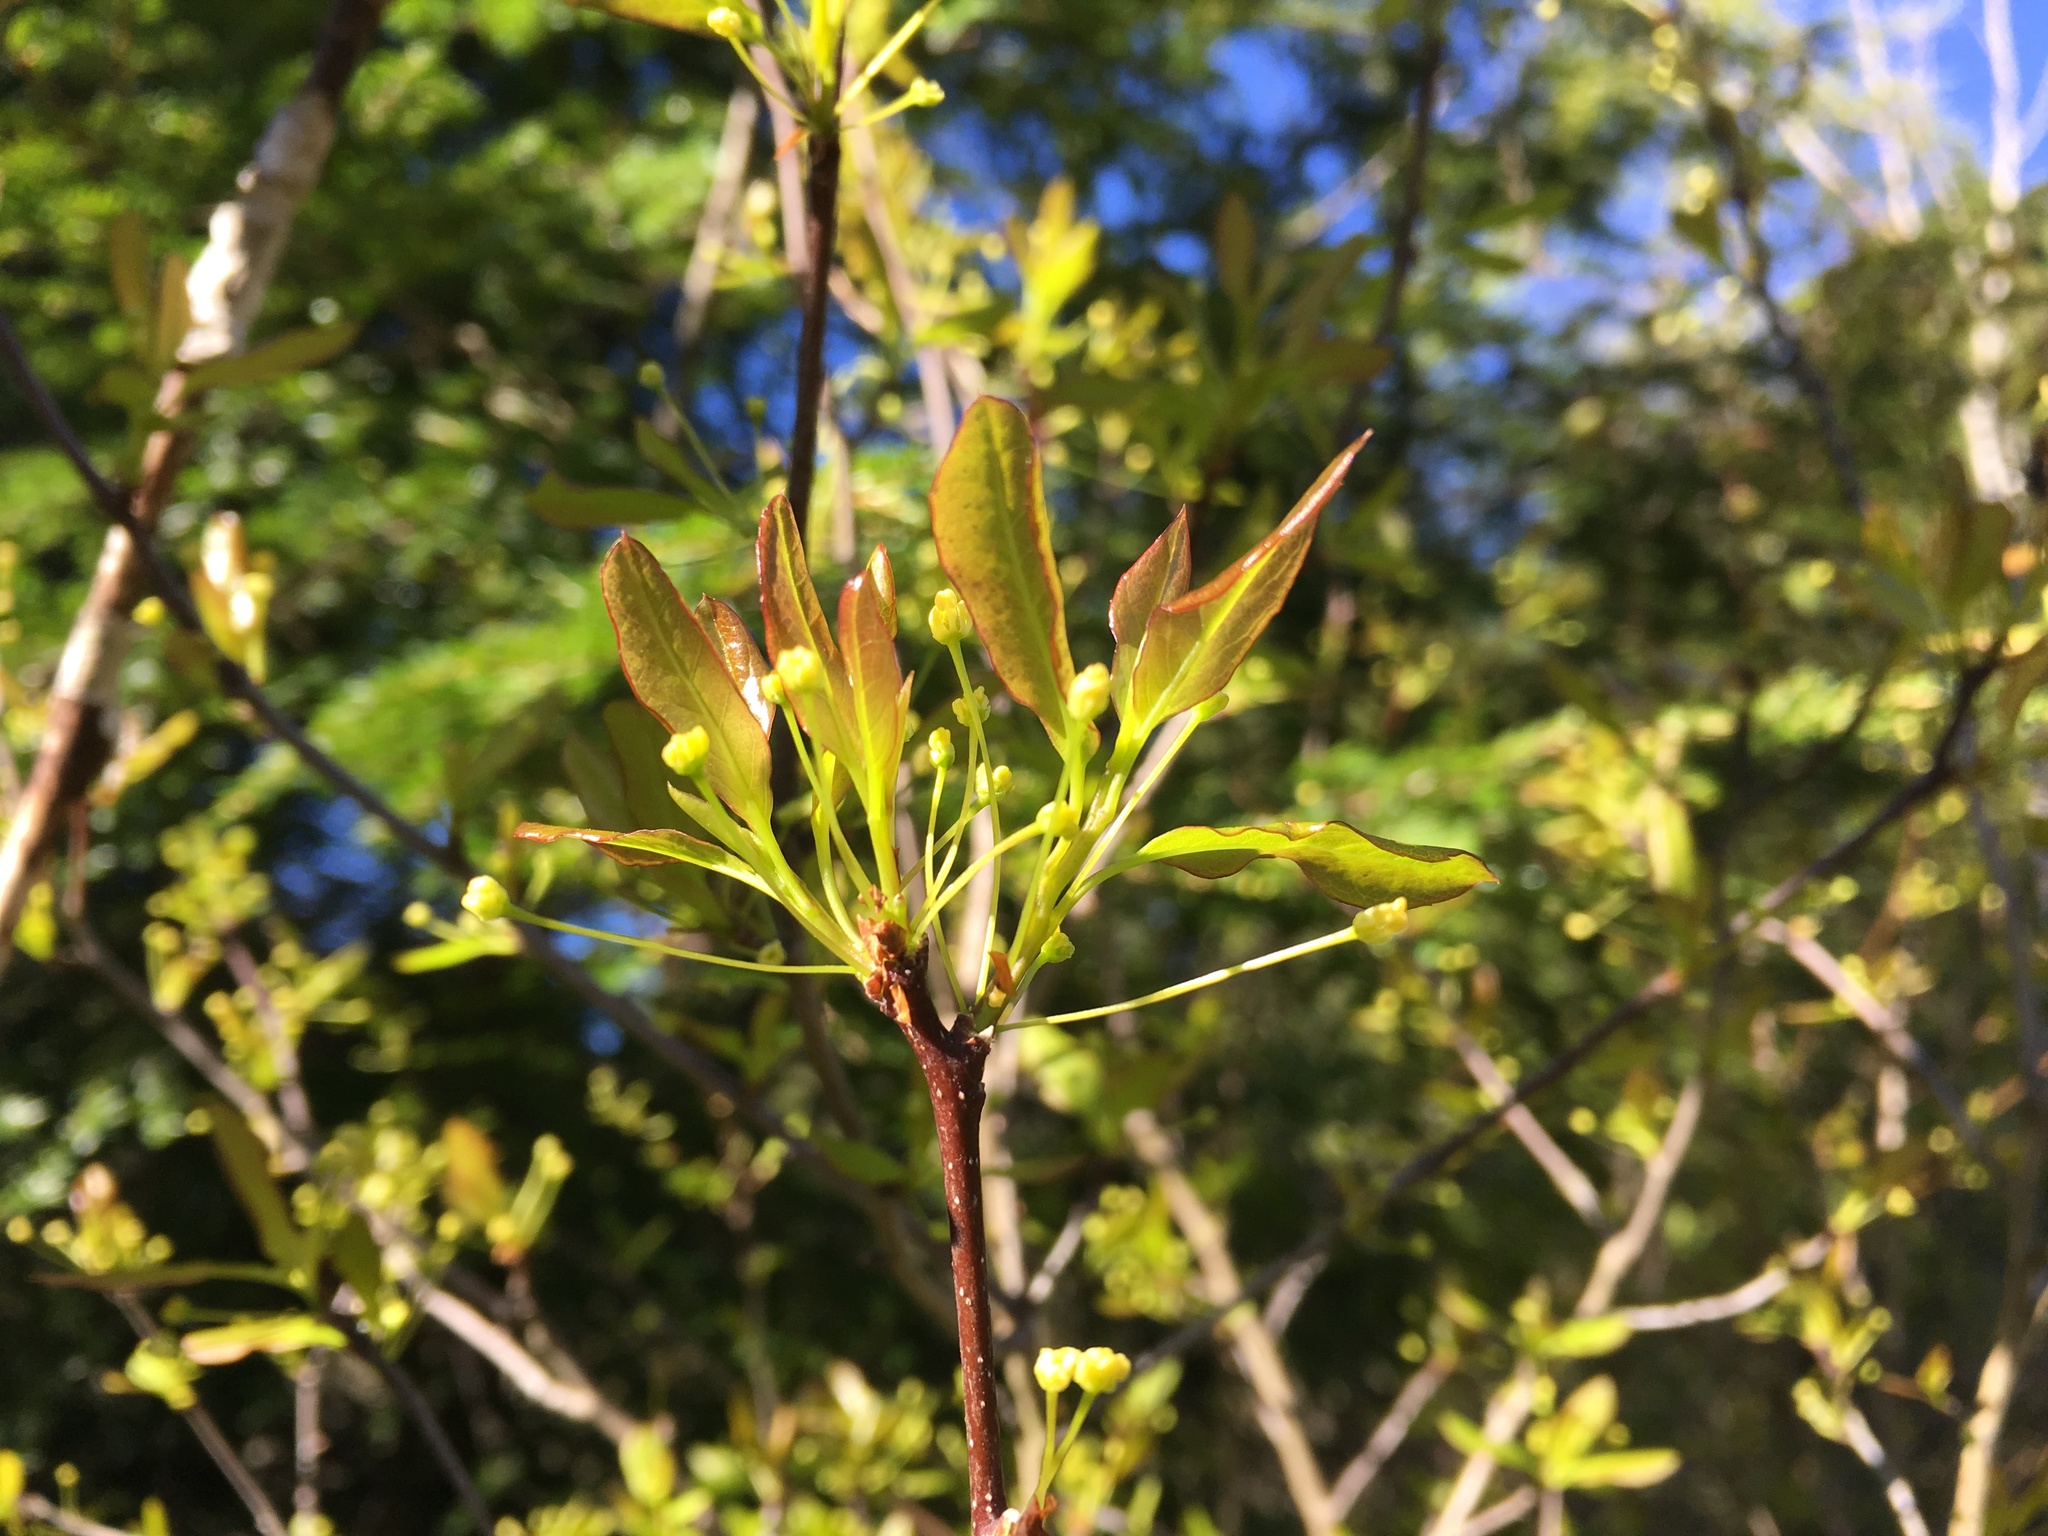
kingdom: Plantae
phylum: Tracheophyta
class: Magnoliopsida
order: Aquifoliales
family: Aquifoliaceae
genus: Ilex
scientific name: Ilex mucronata
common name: Catberry
